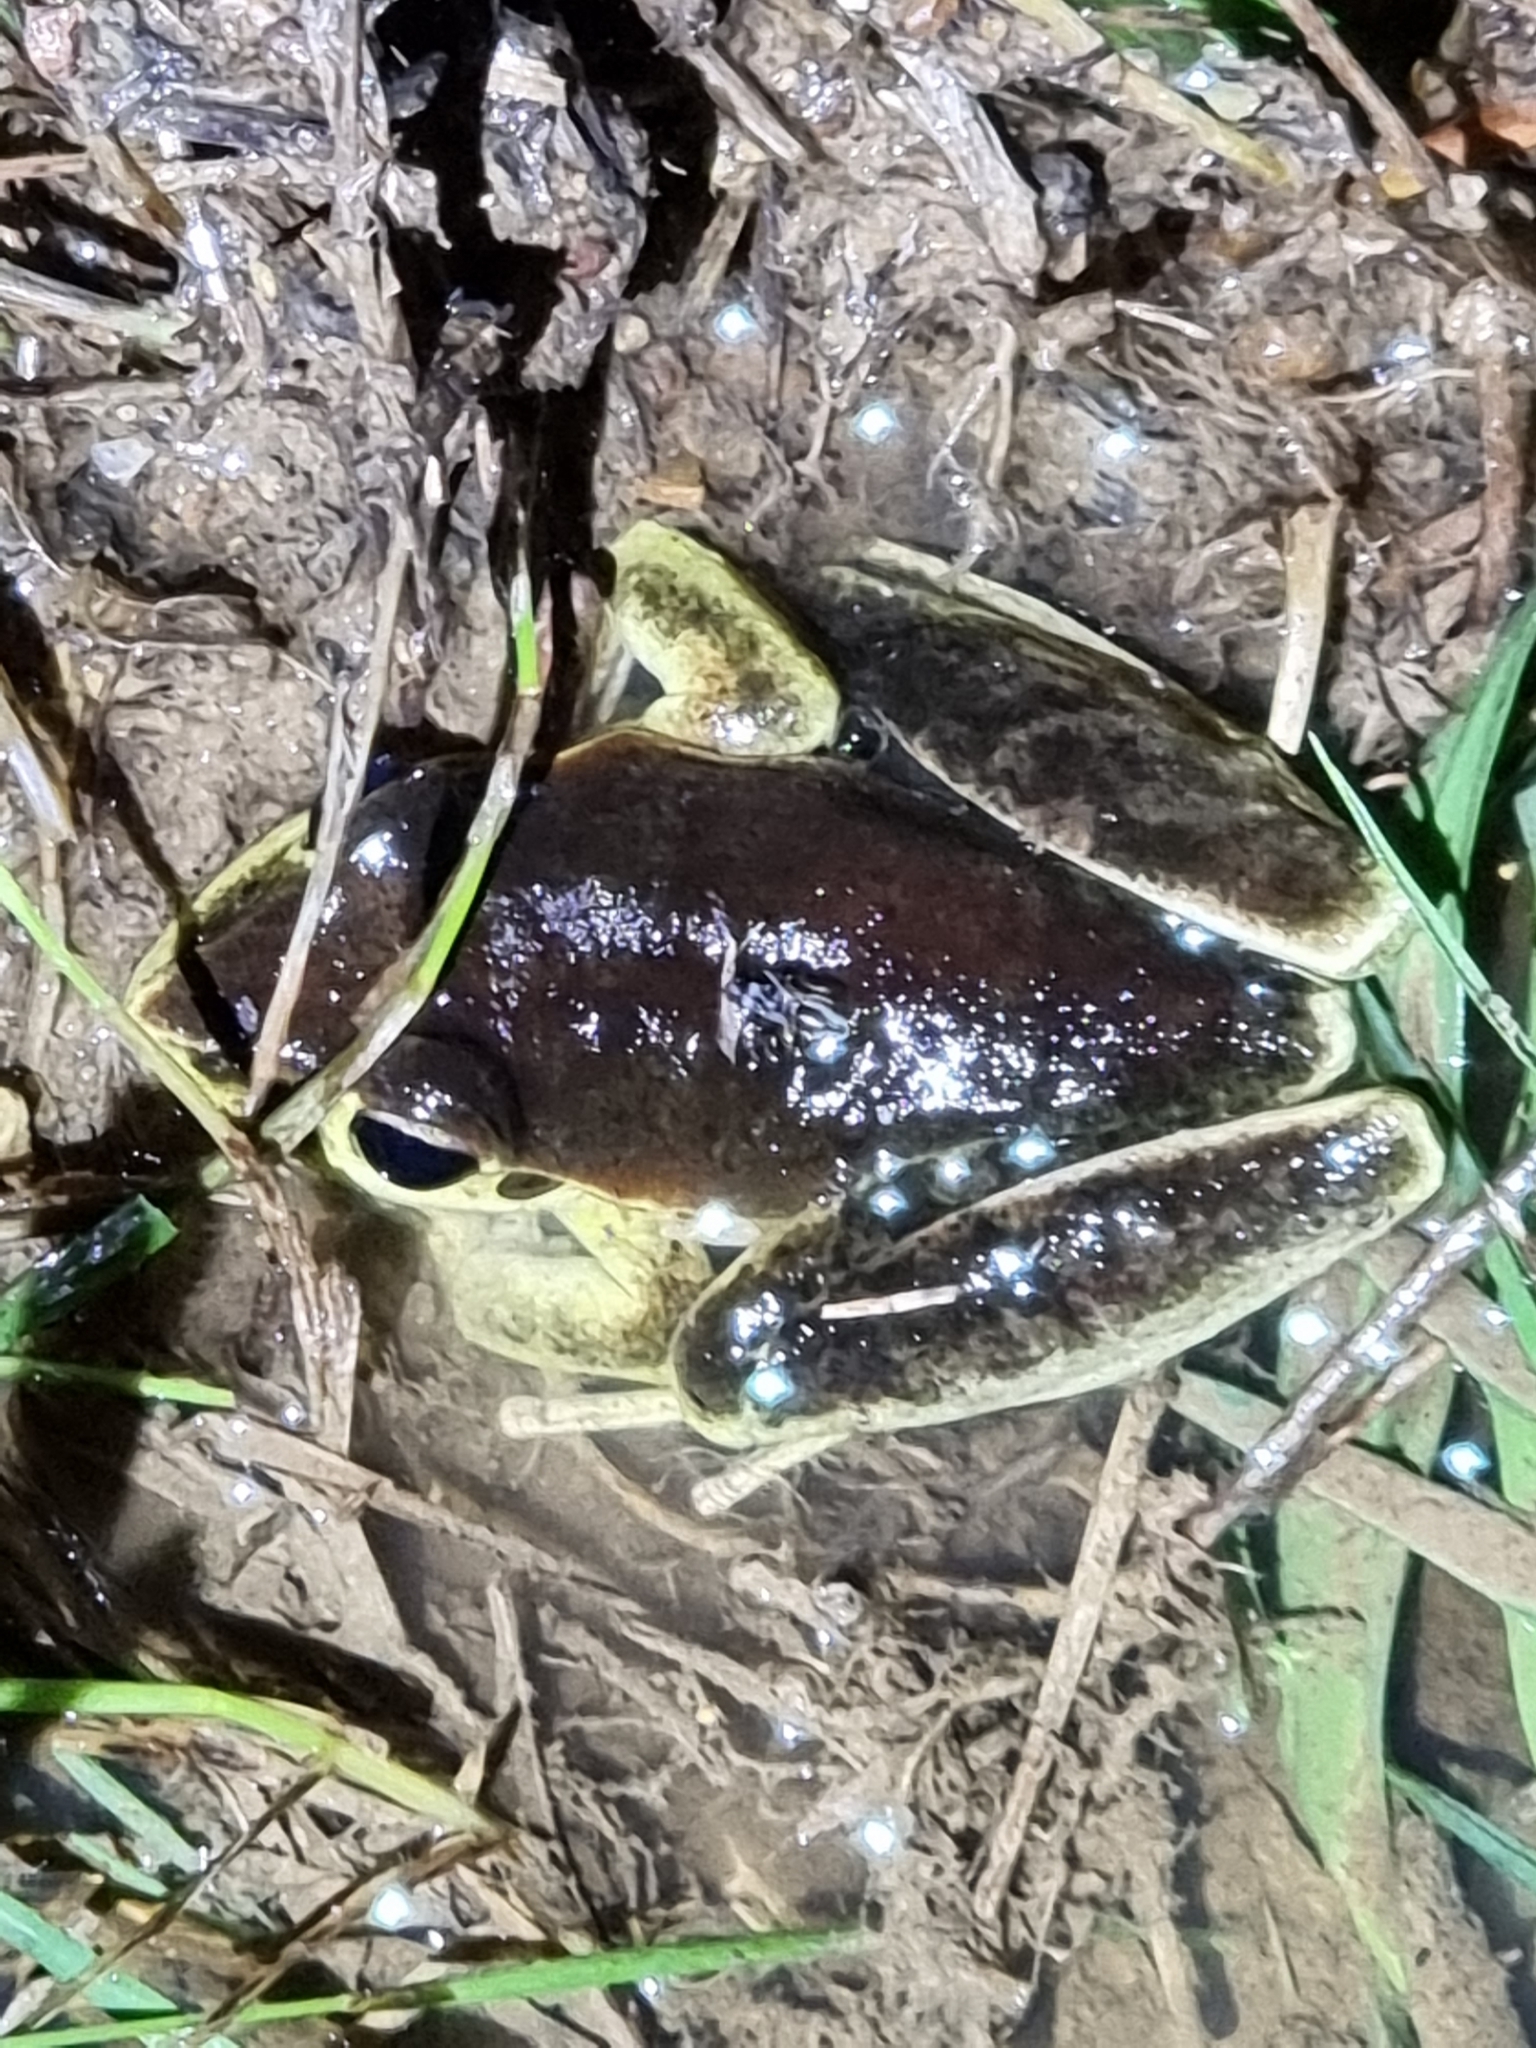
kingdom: Animalia
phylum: Chordata
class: Amphibia
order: Anura
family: Pelodryadidae
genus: Ranoidea
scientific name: Ranoidea wilcoxii
